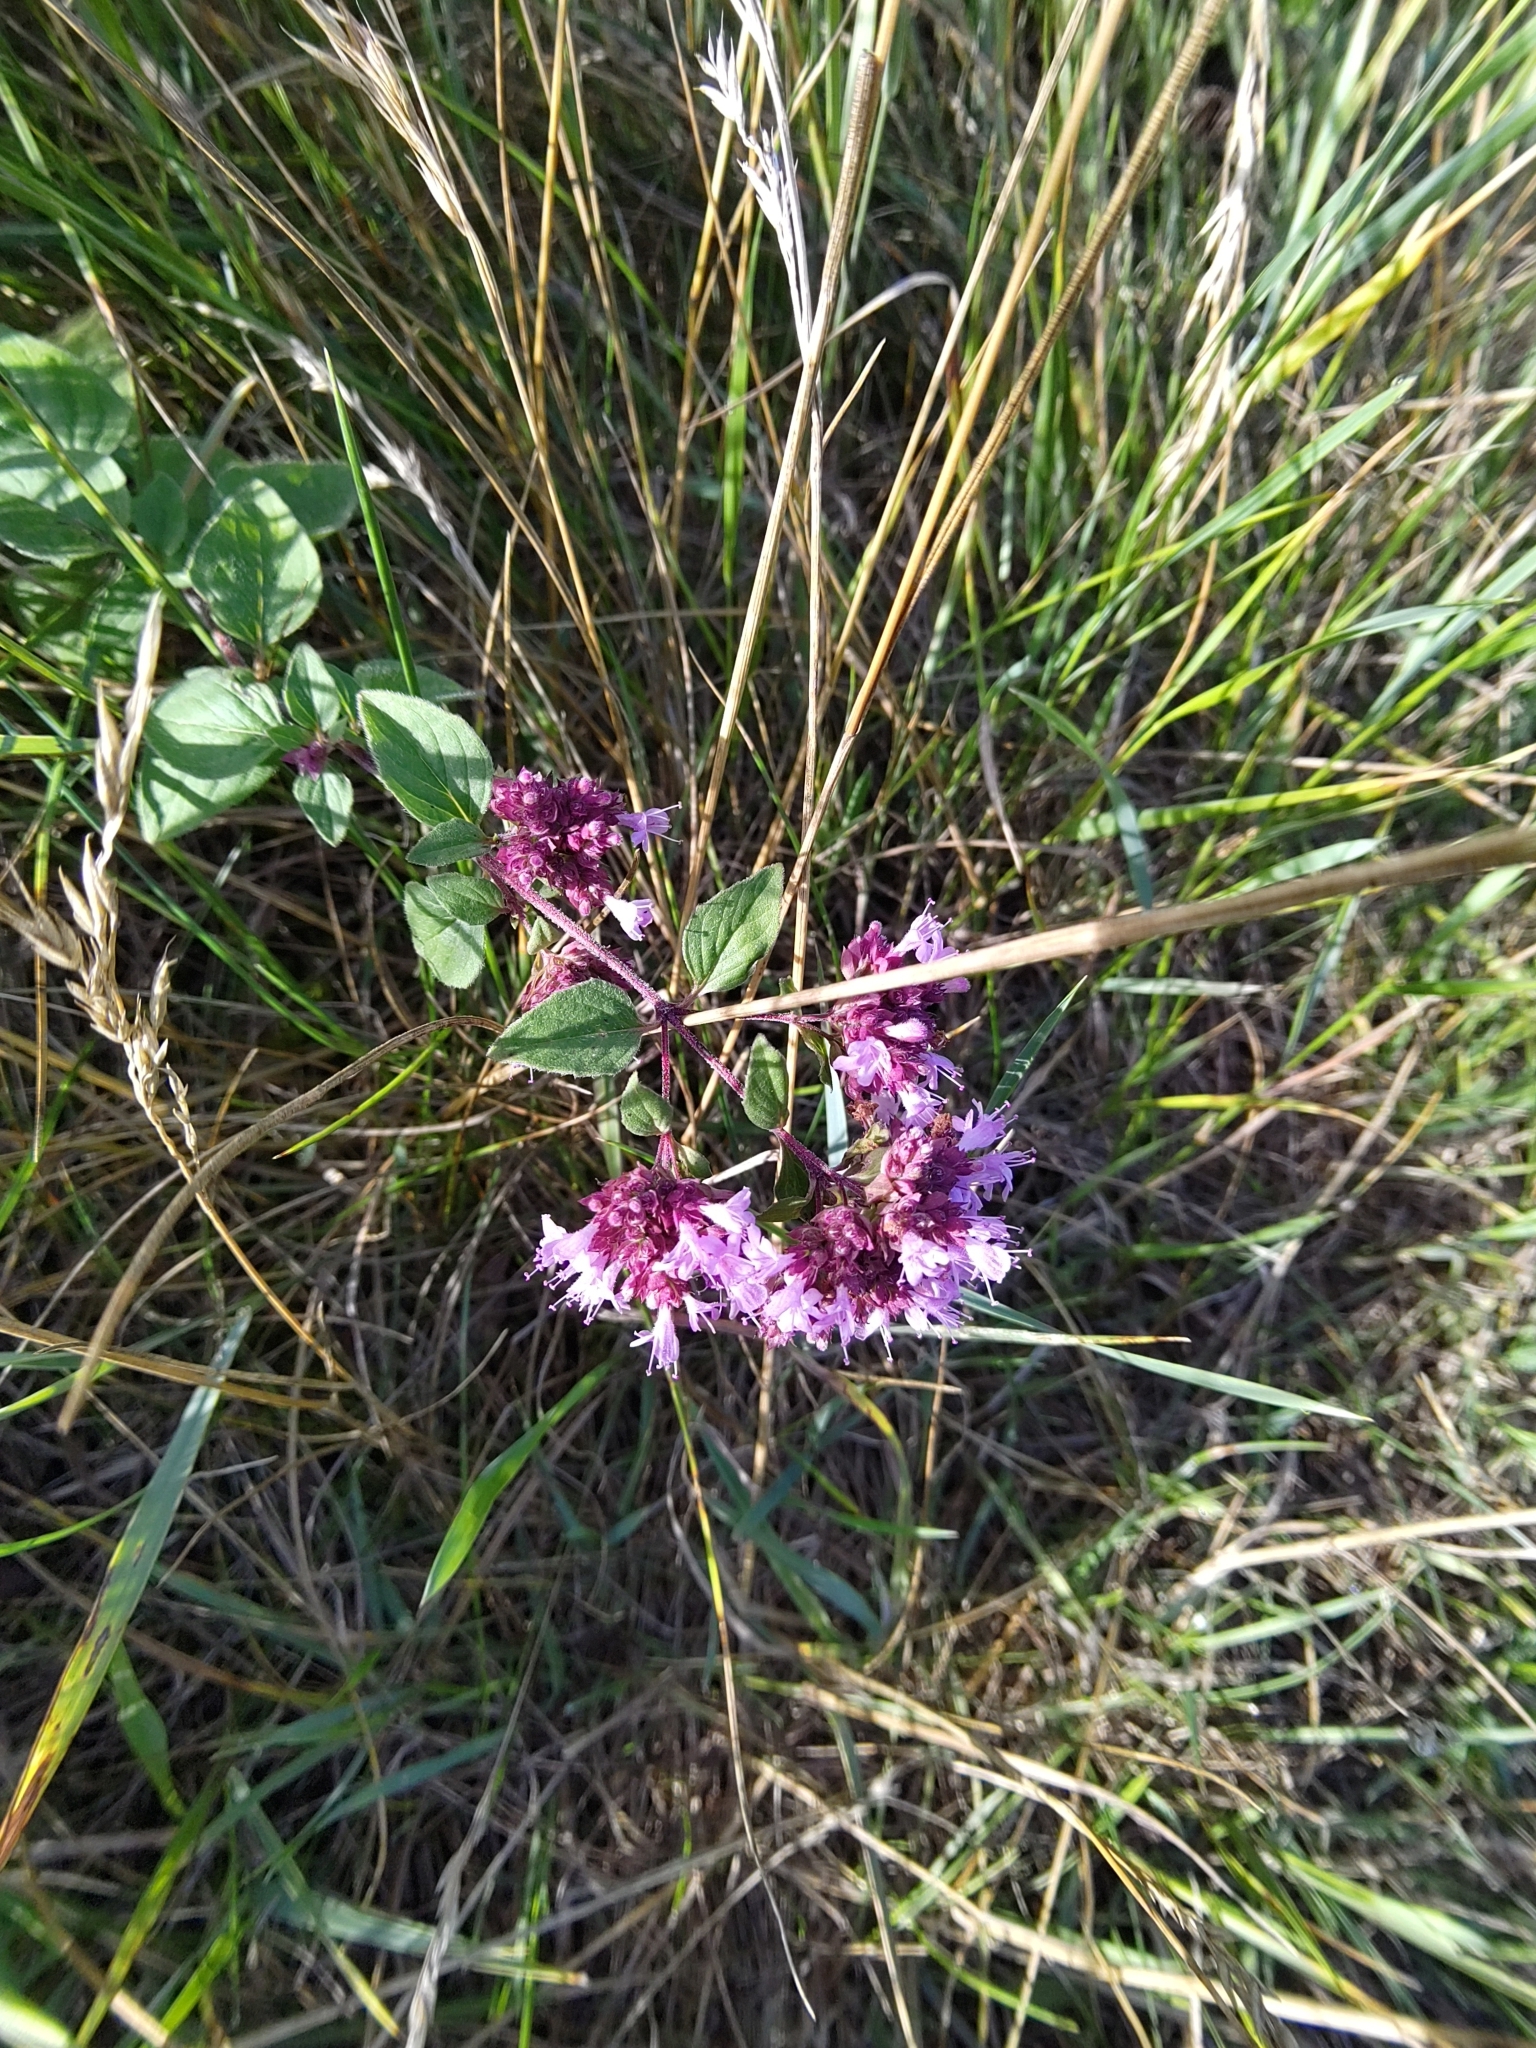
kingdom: Plantae
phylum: Tracheophyta
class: Magnoliopsida
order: Lamiales
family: Lamiaceae
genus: Origanum
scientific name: Origanum vulgare
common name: Wild marjoram
